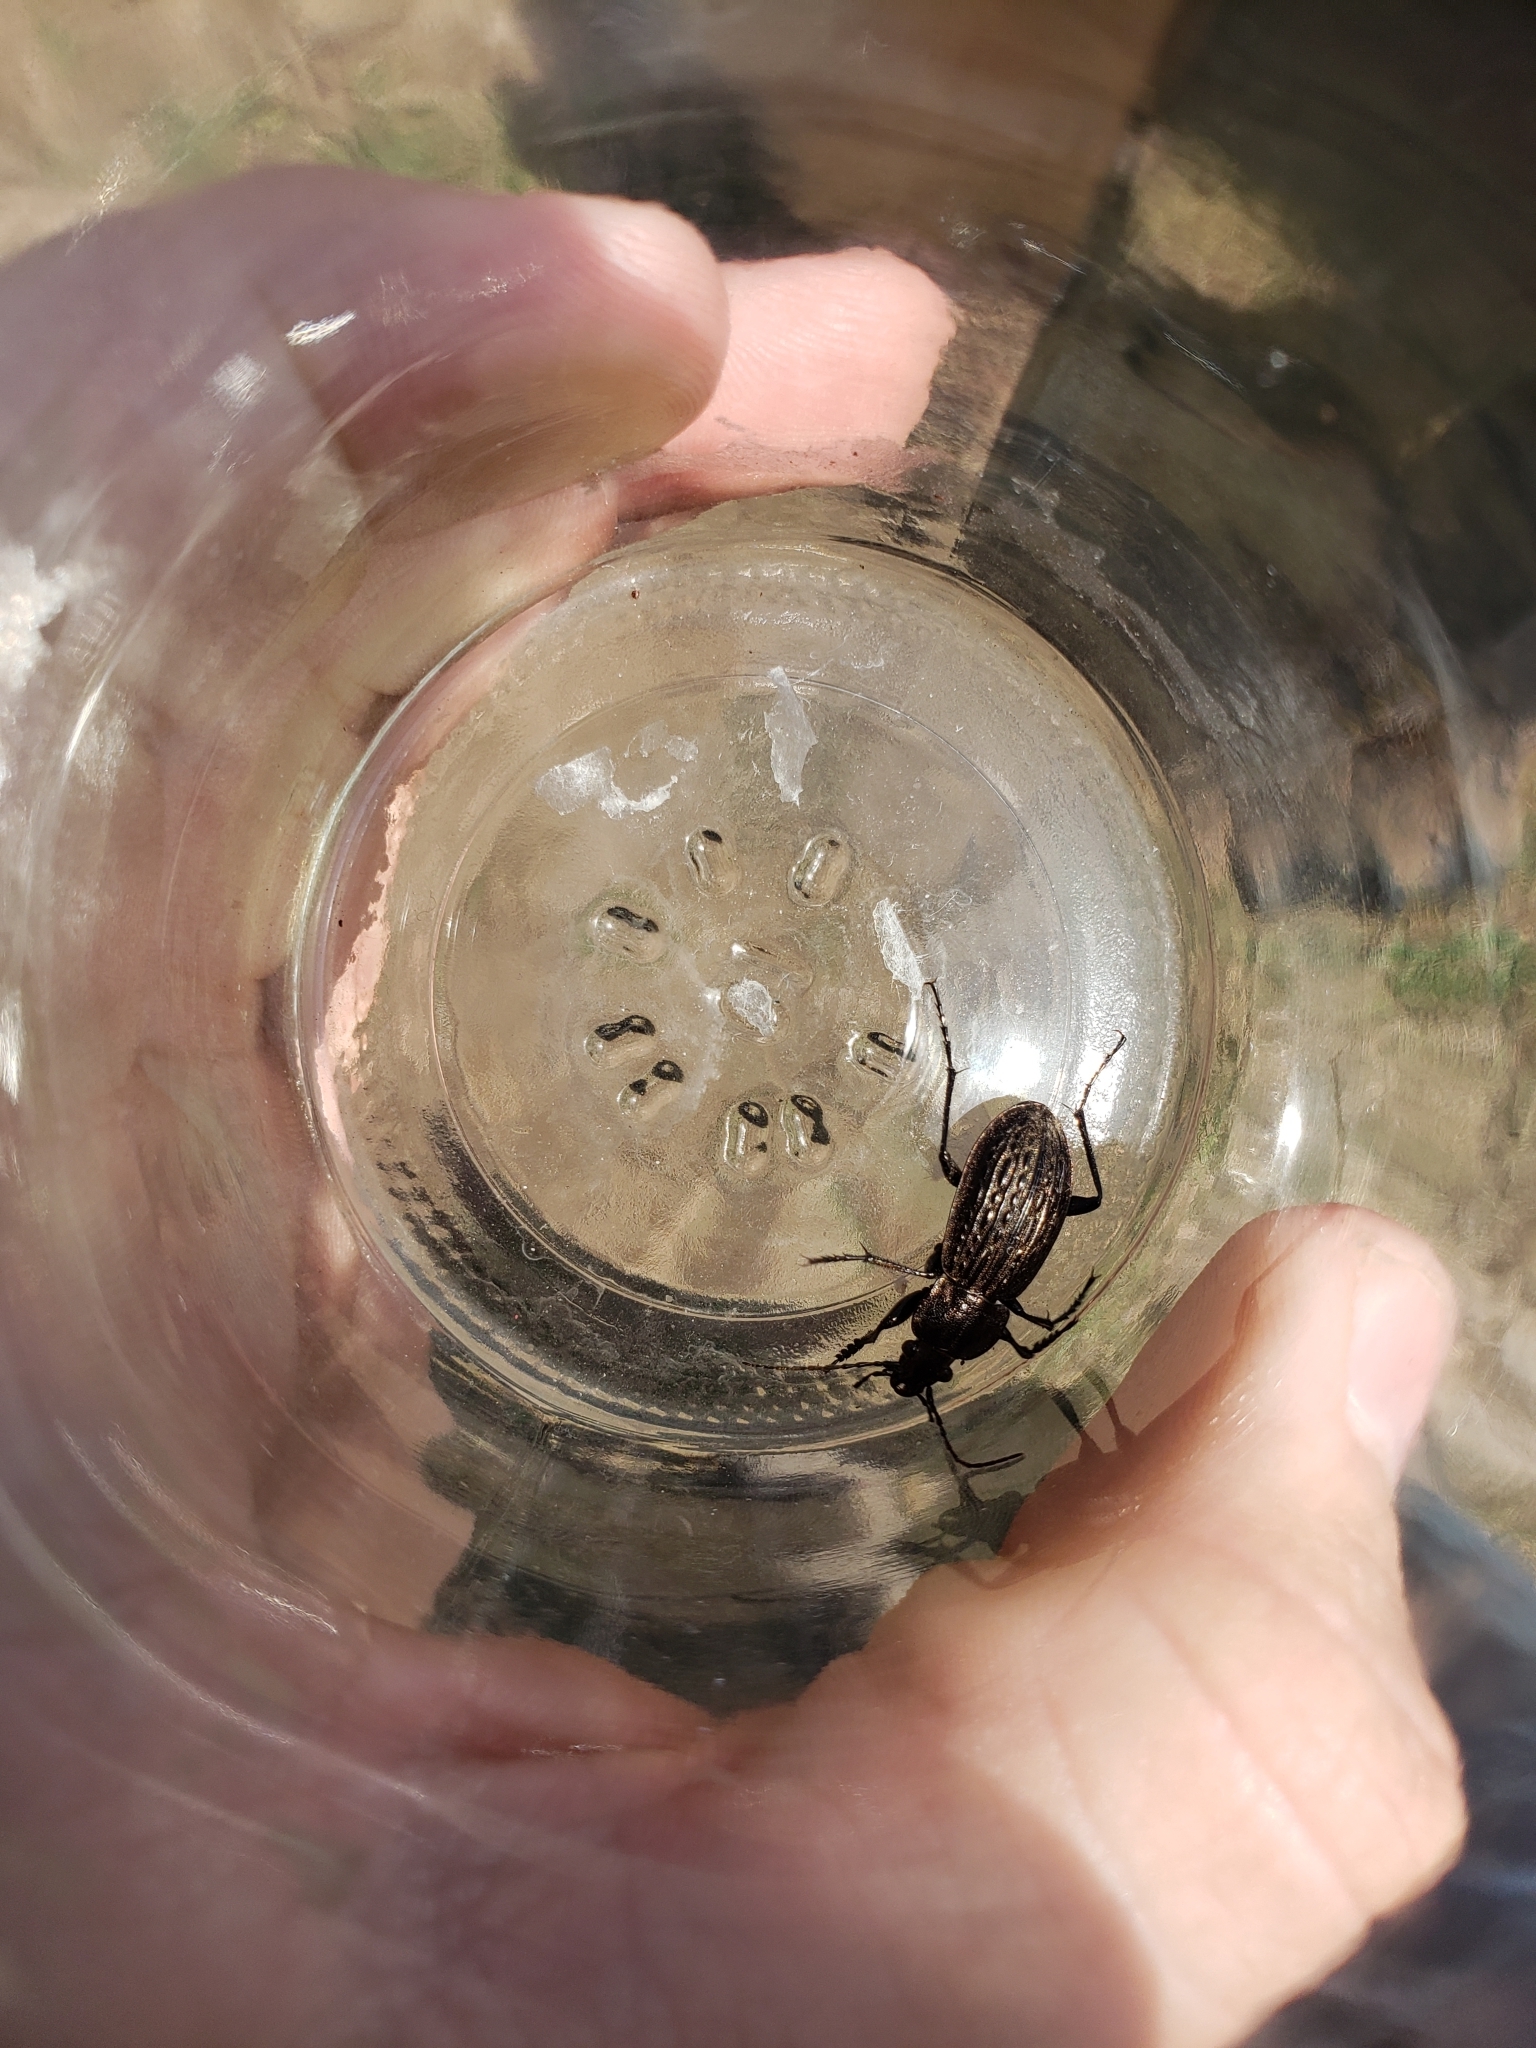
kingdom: Animalia
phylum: Arthropoda
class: Insecta
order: Coleoptera
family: Carabidae
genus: Carabus
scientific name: Carabus maeander
